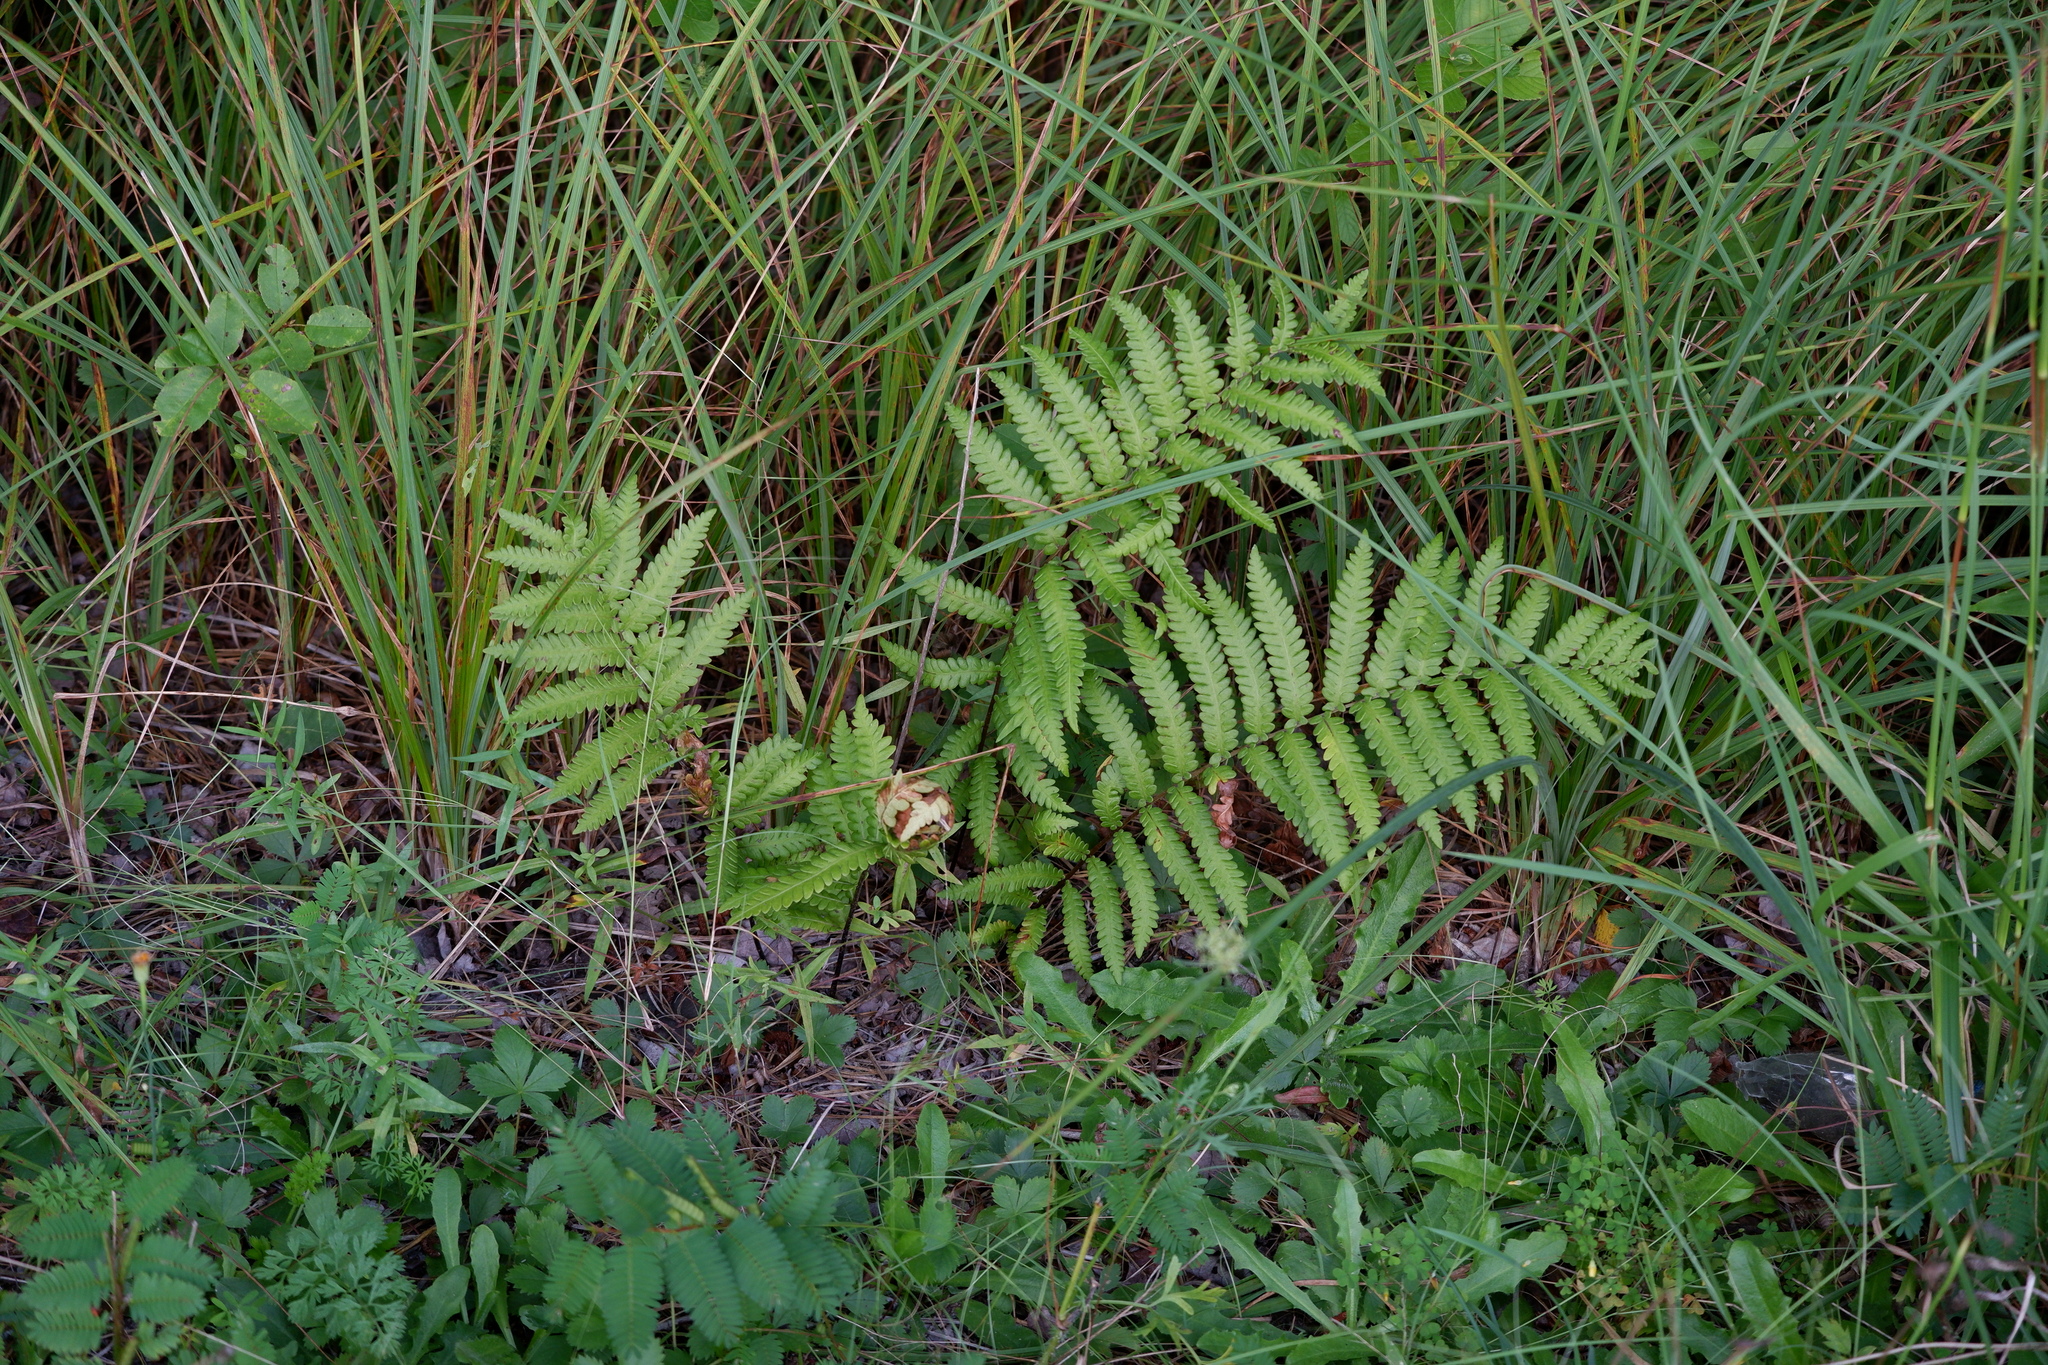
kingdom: Plantae
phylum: Tracheophyta
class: Polypodiopsida
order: Polypodiales
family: Blechnaceae
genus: Anchistea
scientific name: Anchistea virginica
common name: Virginia chain fern
